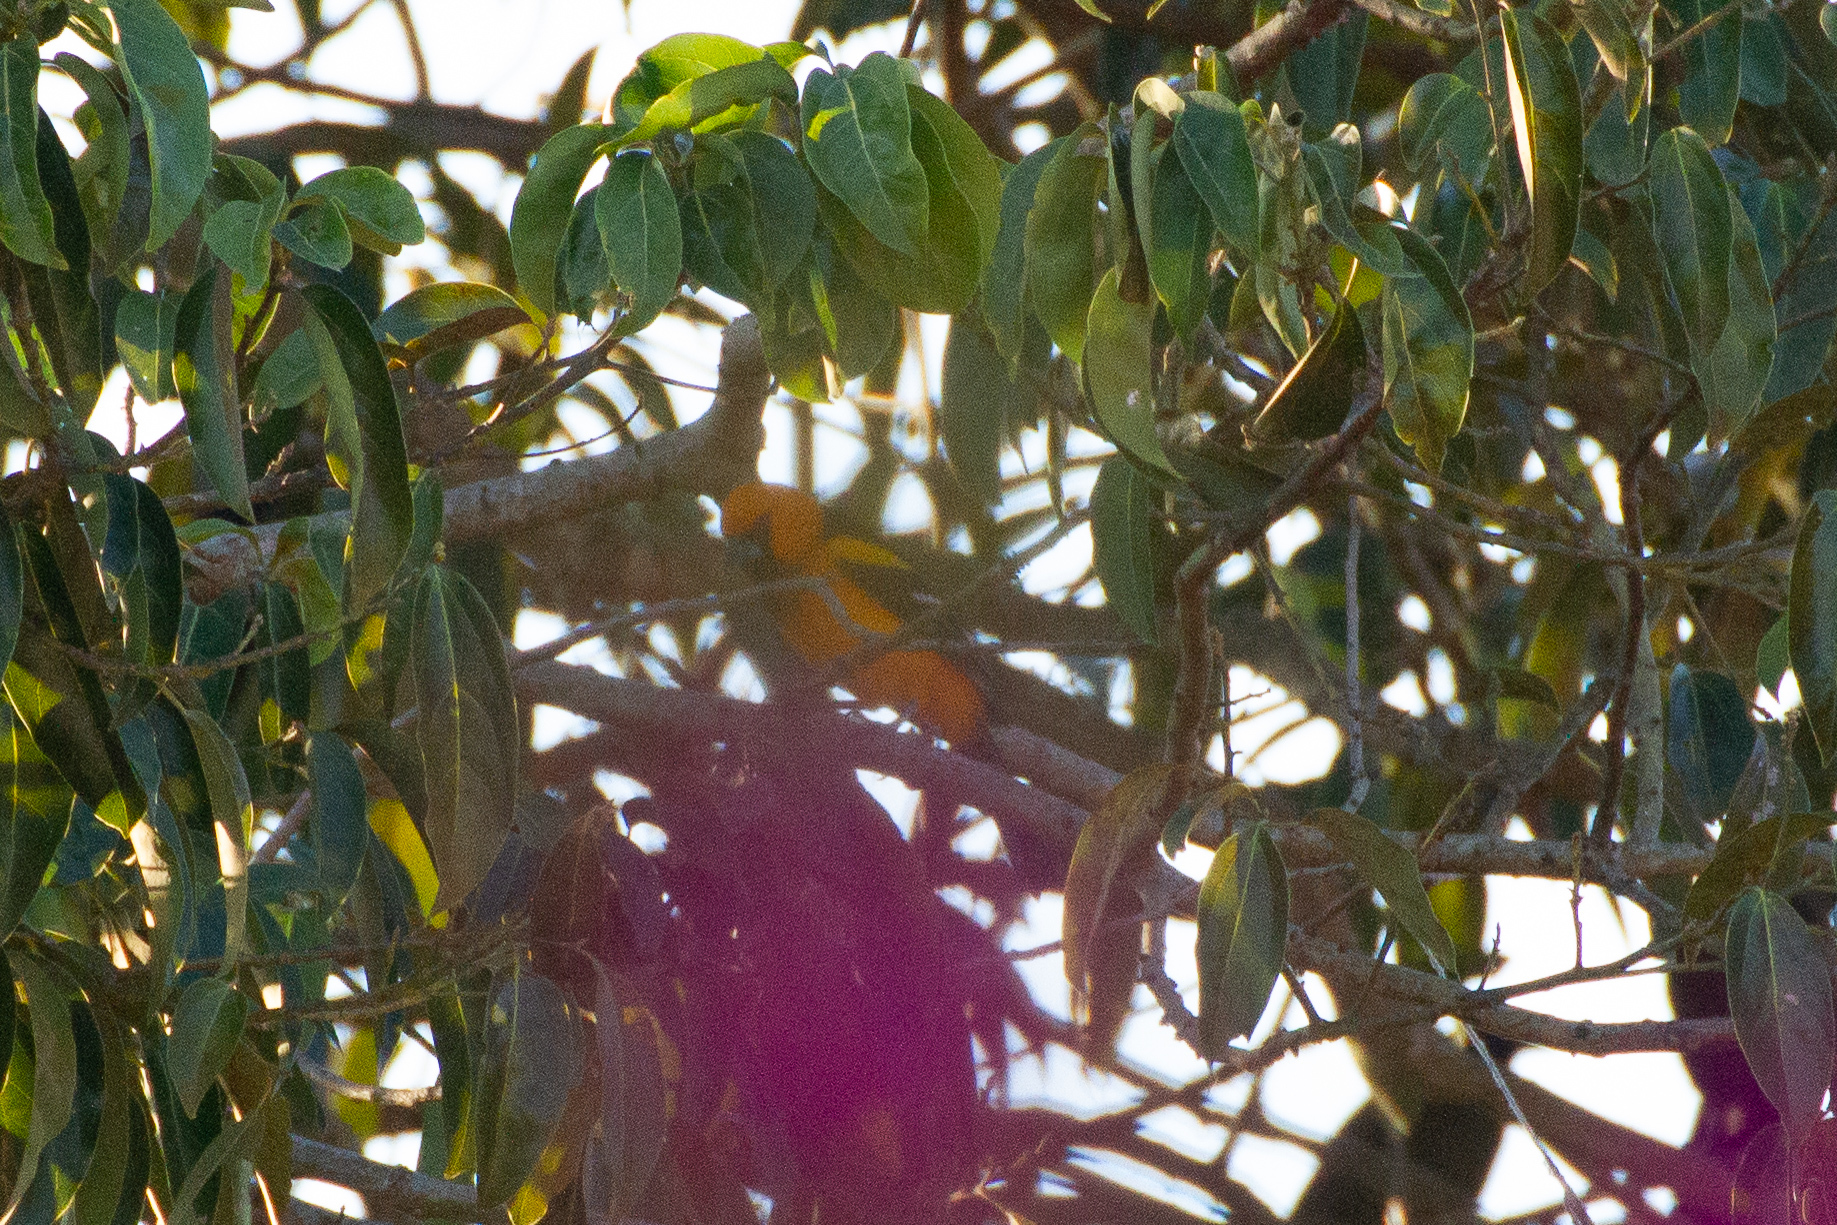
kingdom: Animalia
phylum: Chordata
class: Aves
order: Passeriformes
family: Icteridae
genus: Icterus
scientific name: Icterus gularis
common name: Altamira oriole
